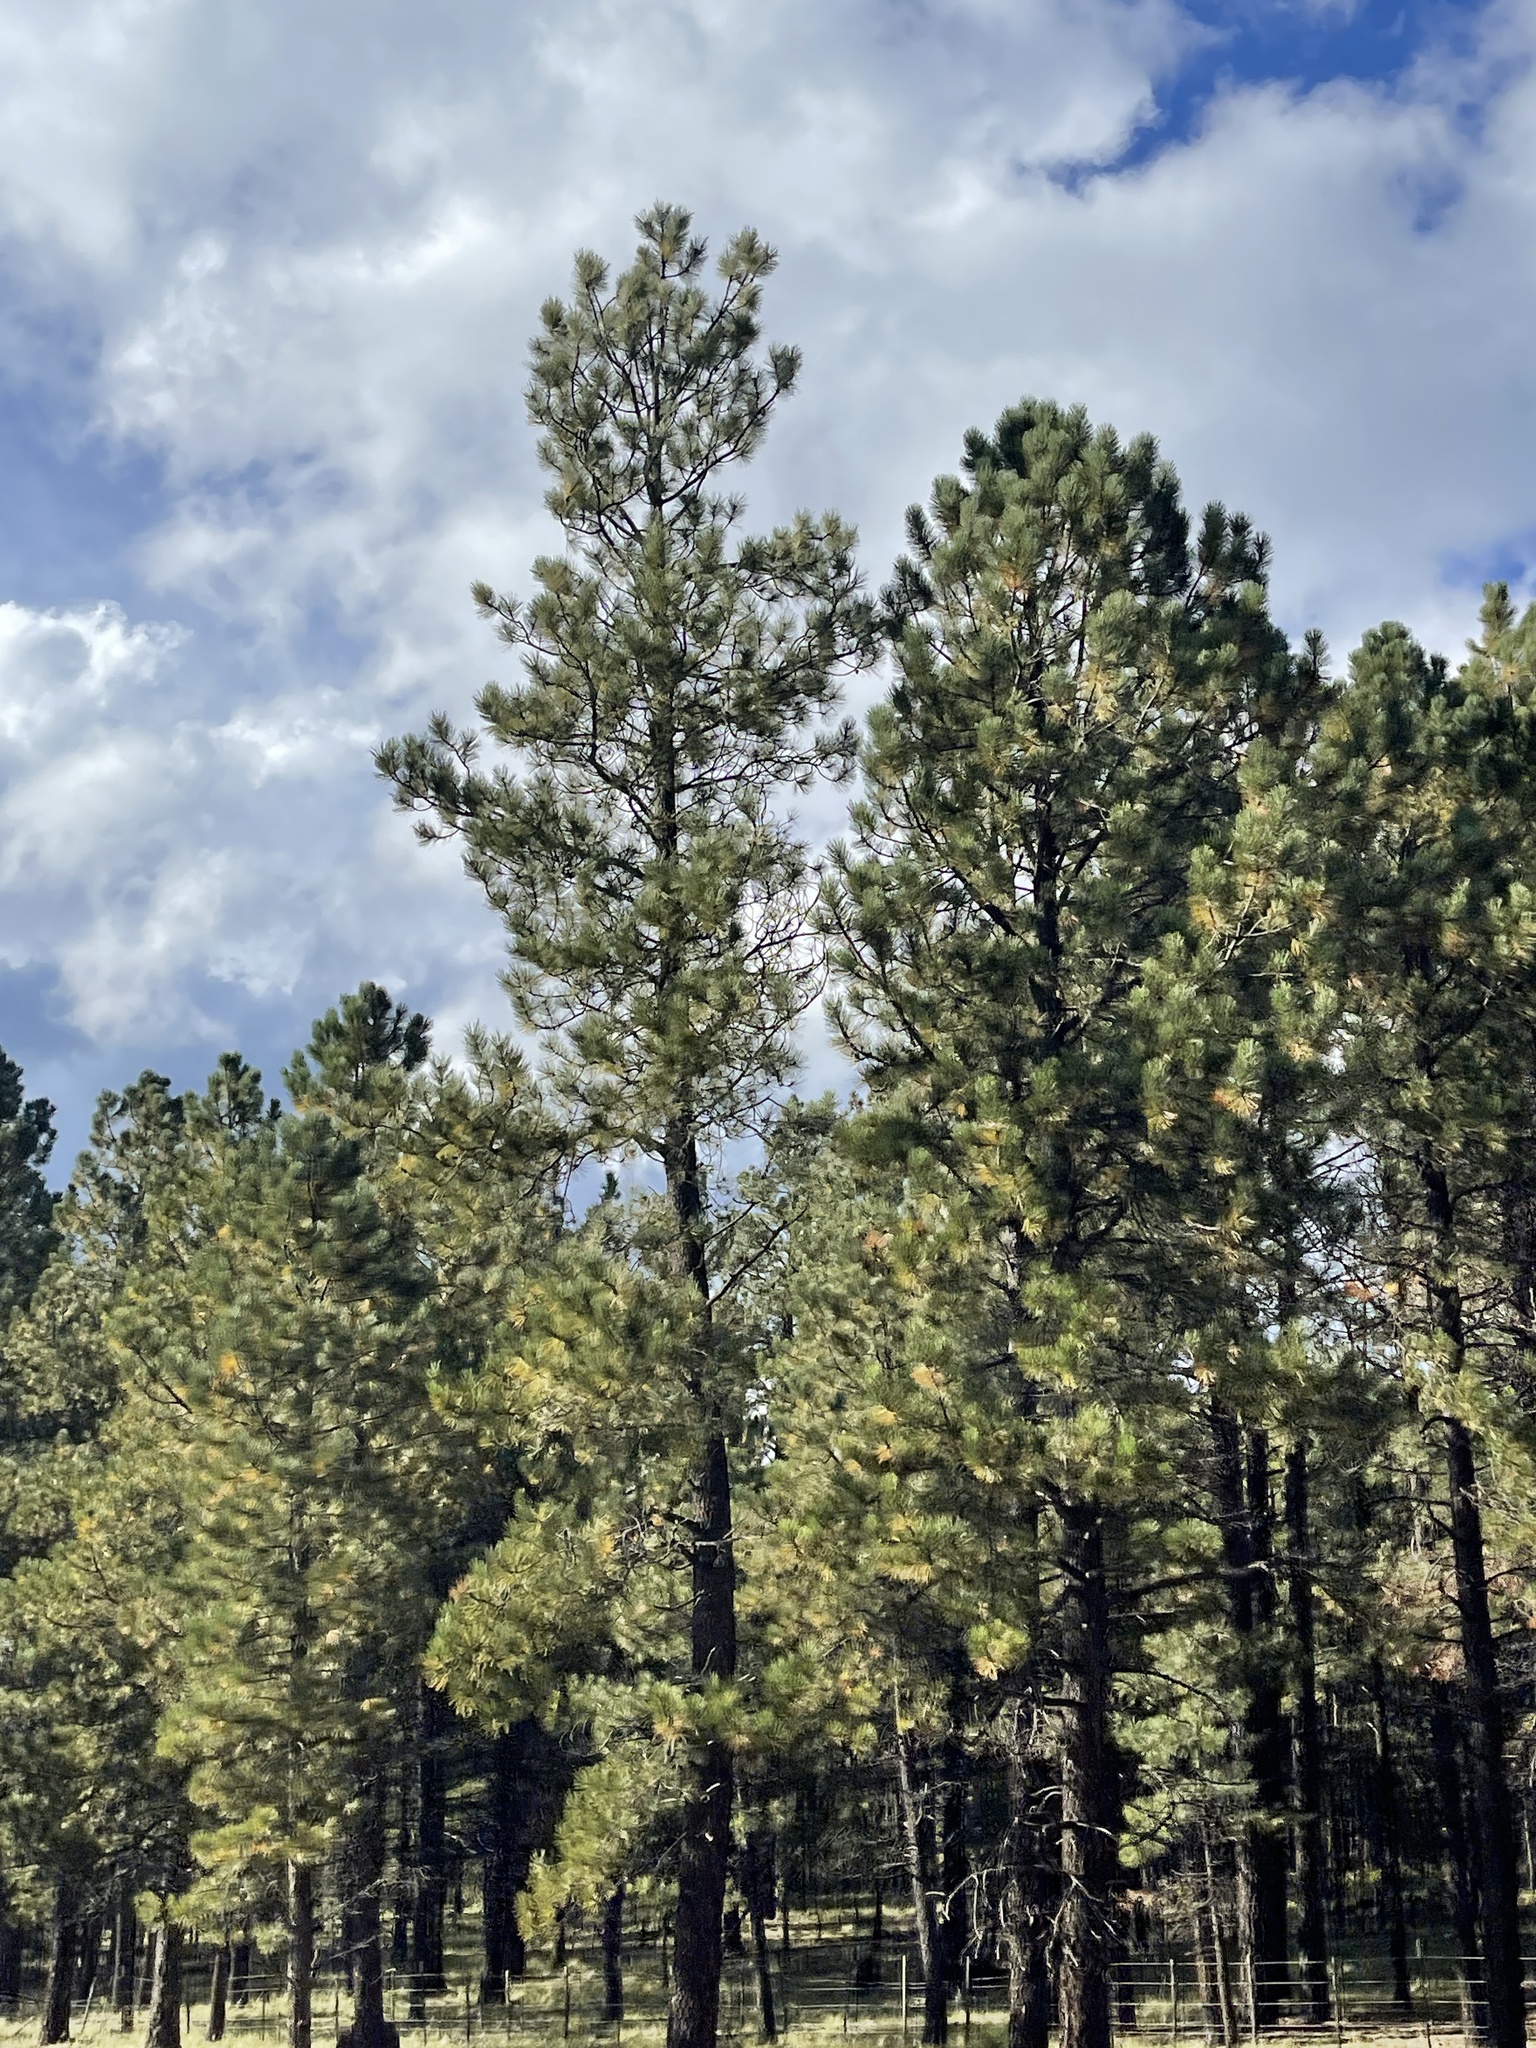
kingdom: Plantae
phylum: Tracheophyta
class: Pinopsida
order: Pinales
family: Pinaceae
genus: Pinus
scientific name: Pinus ponderosa
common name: Western yellow-pine
